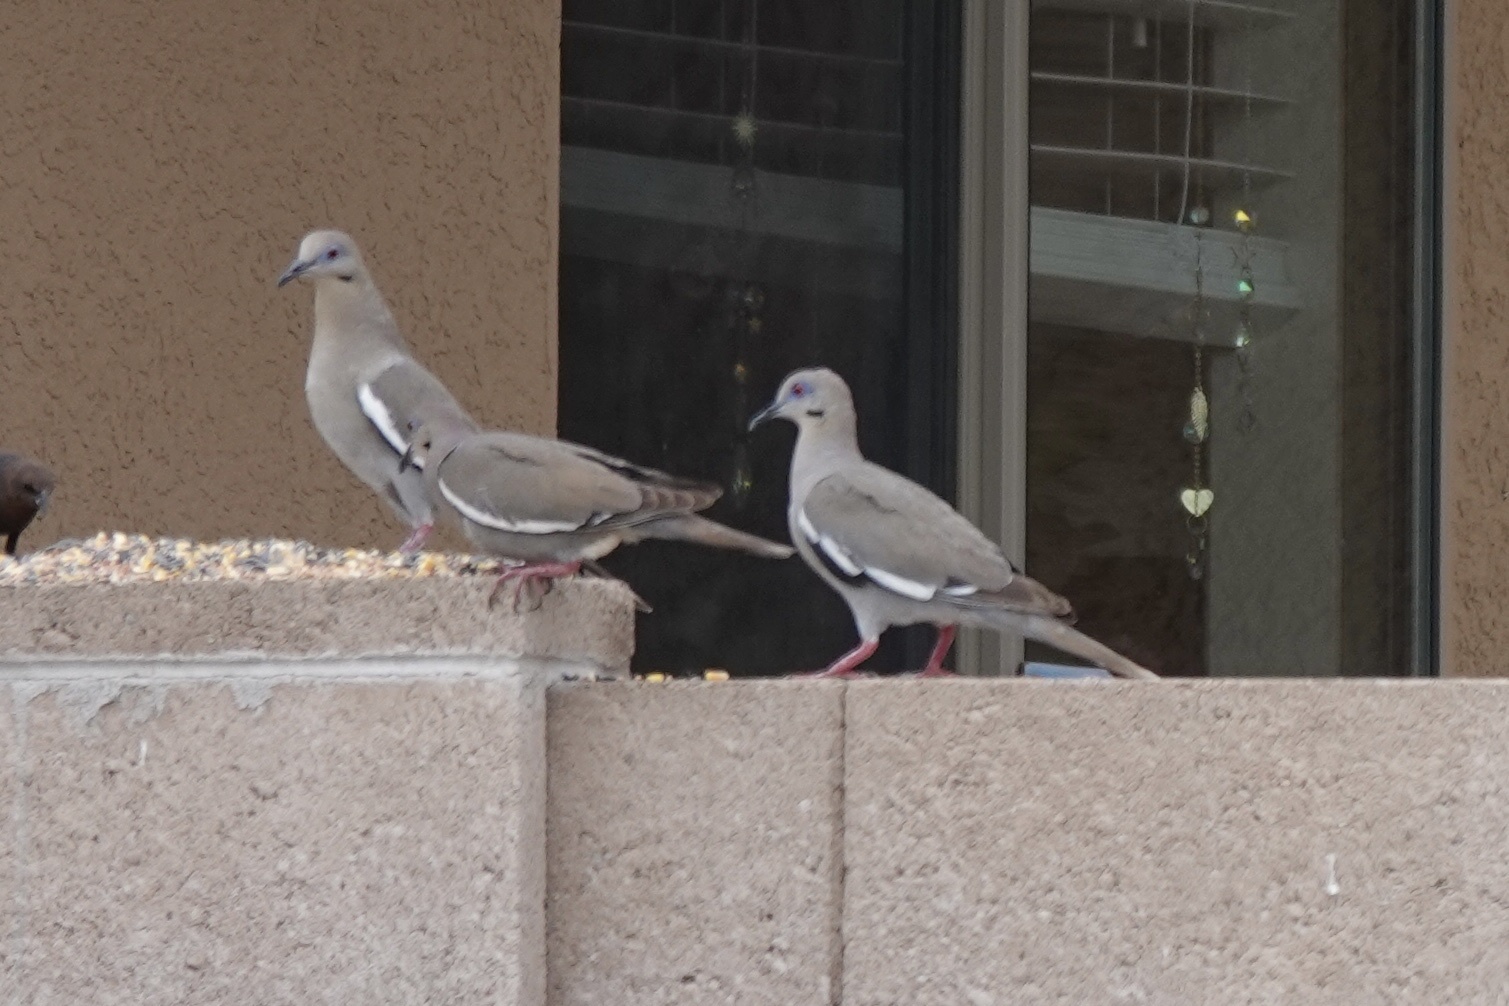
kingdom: Animalia
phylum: Chordata
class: Aves
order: Columbiformes
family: Columbidae
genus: Zenaida
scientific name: Zenaida asiatica
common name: White-winged dove
